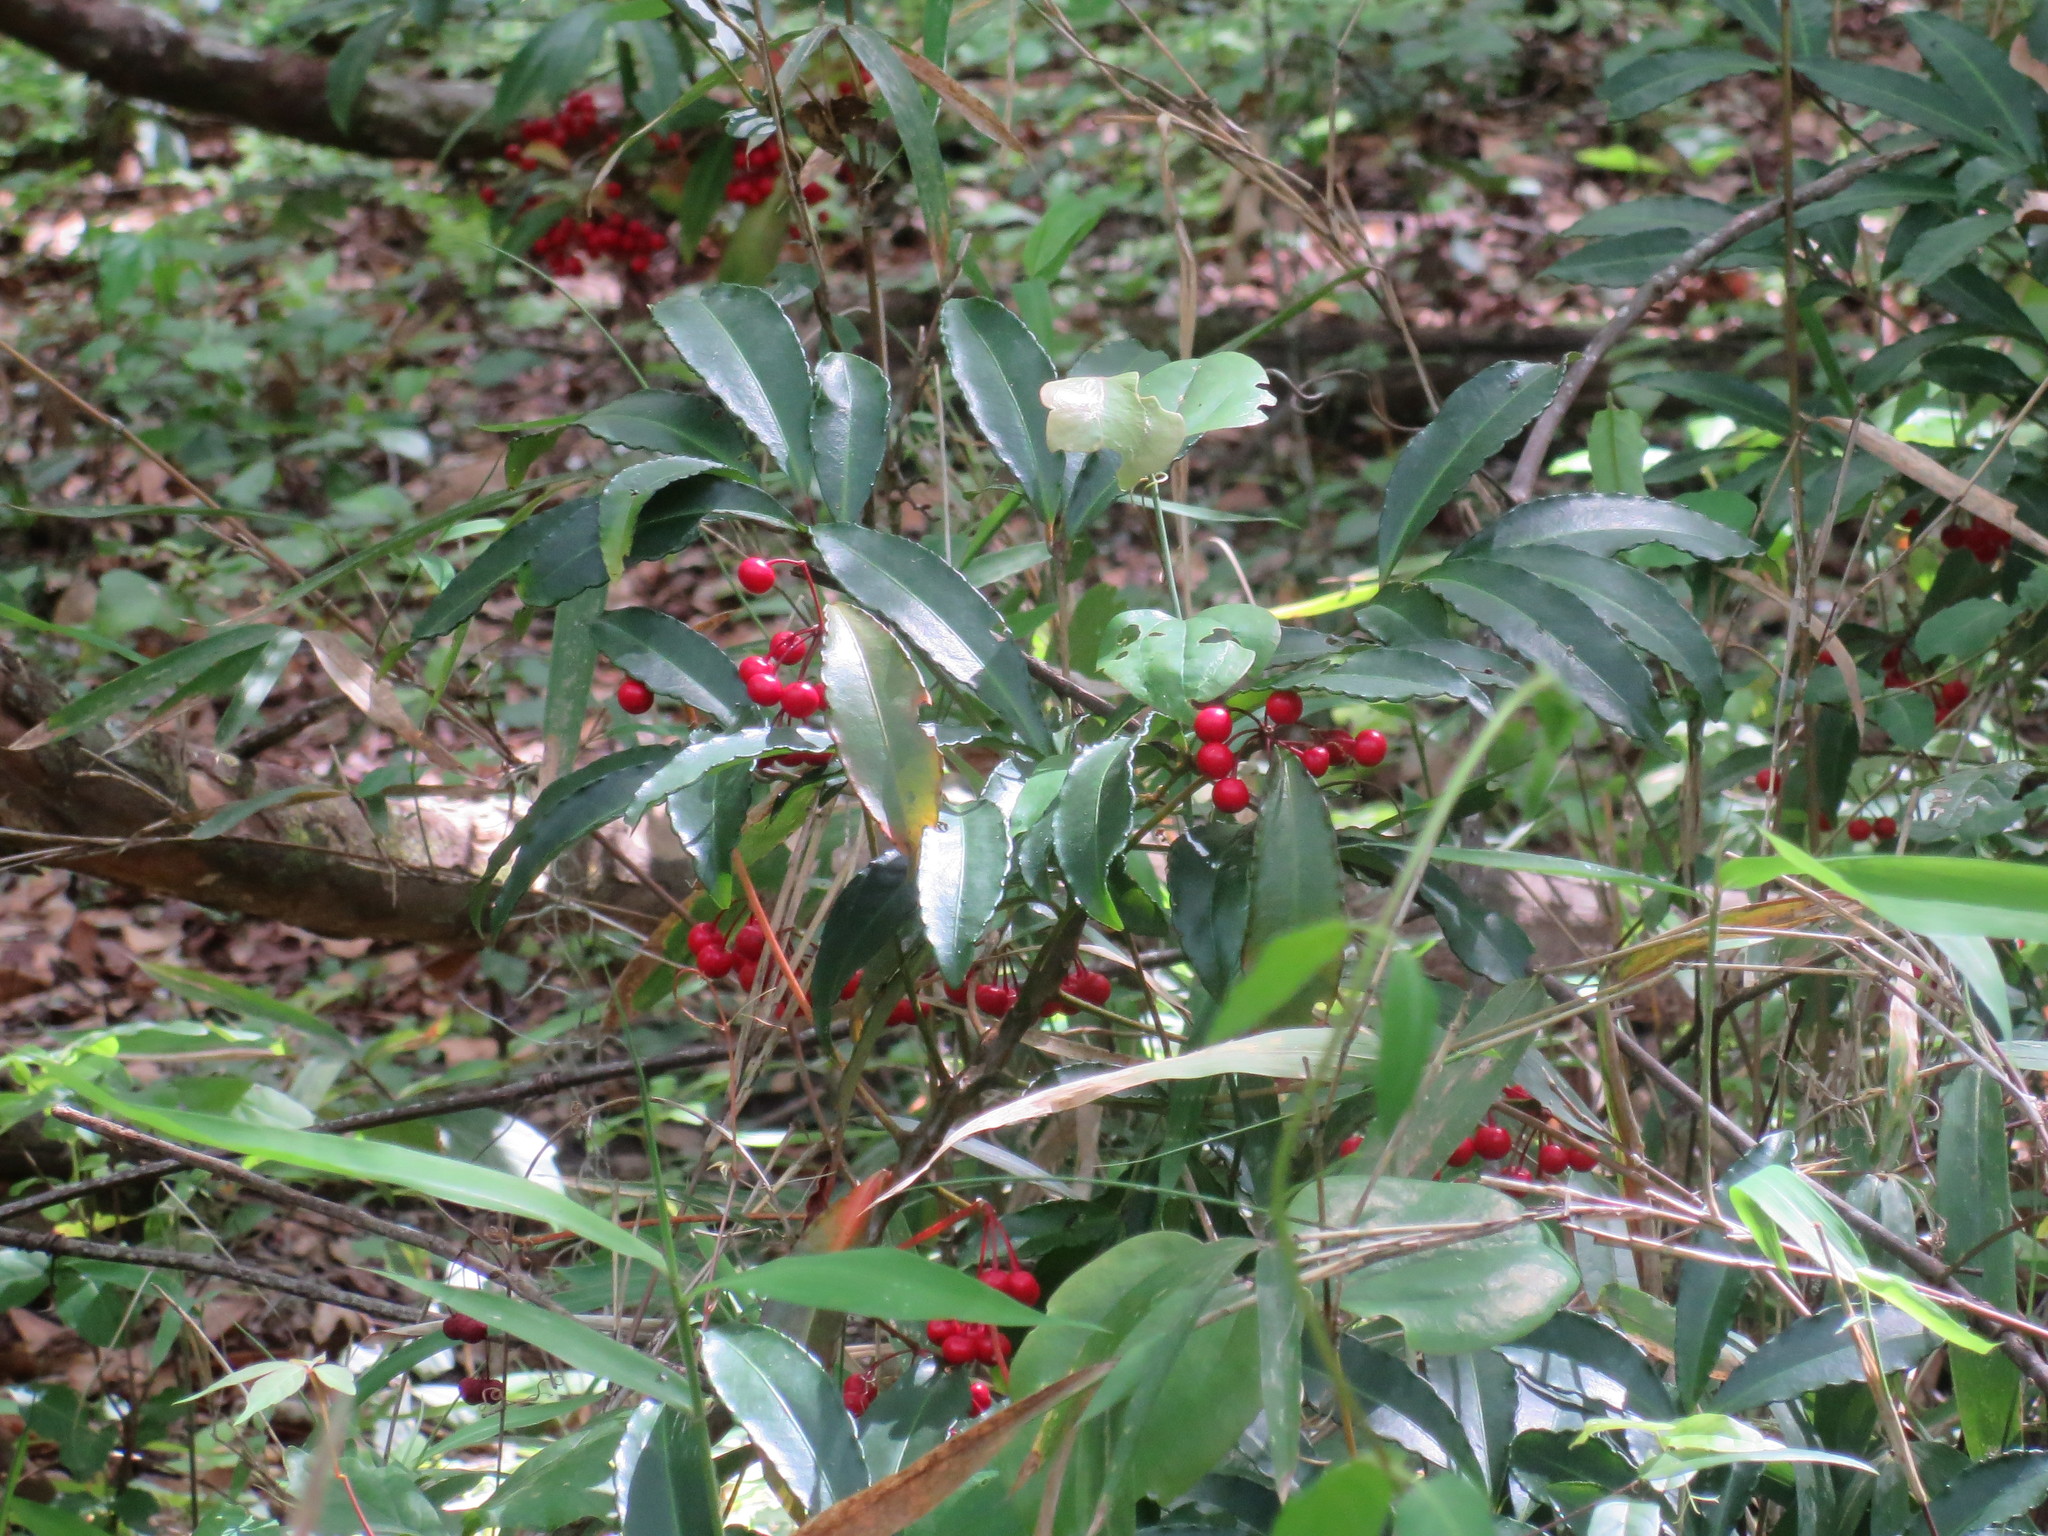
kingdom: Plantae
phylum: Tracheophyta
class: Magnoliopsida
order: Ericales
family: Primulaceae
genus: Ardisia
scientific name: Ardisia crenata
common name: Hen's eyes
